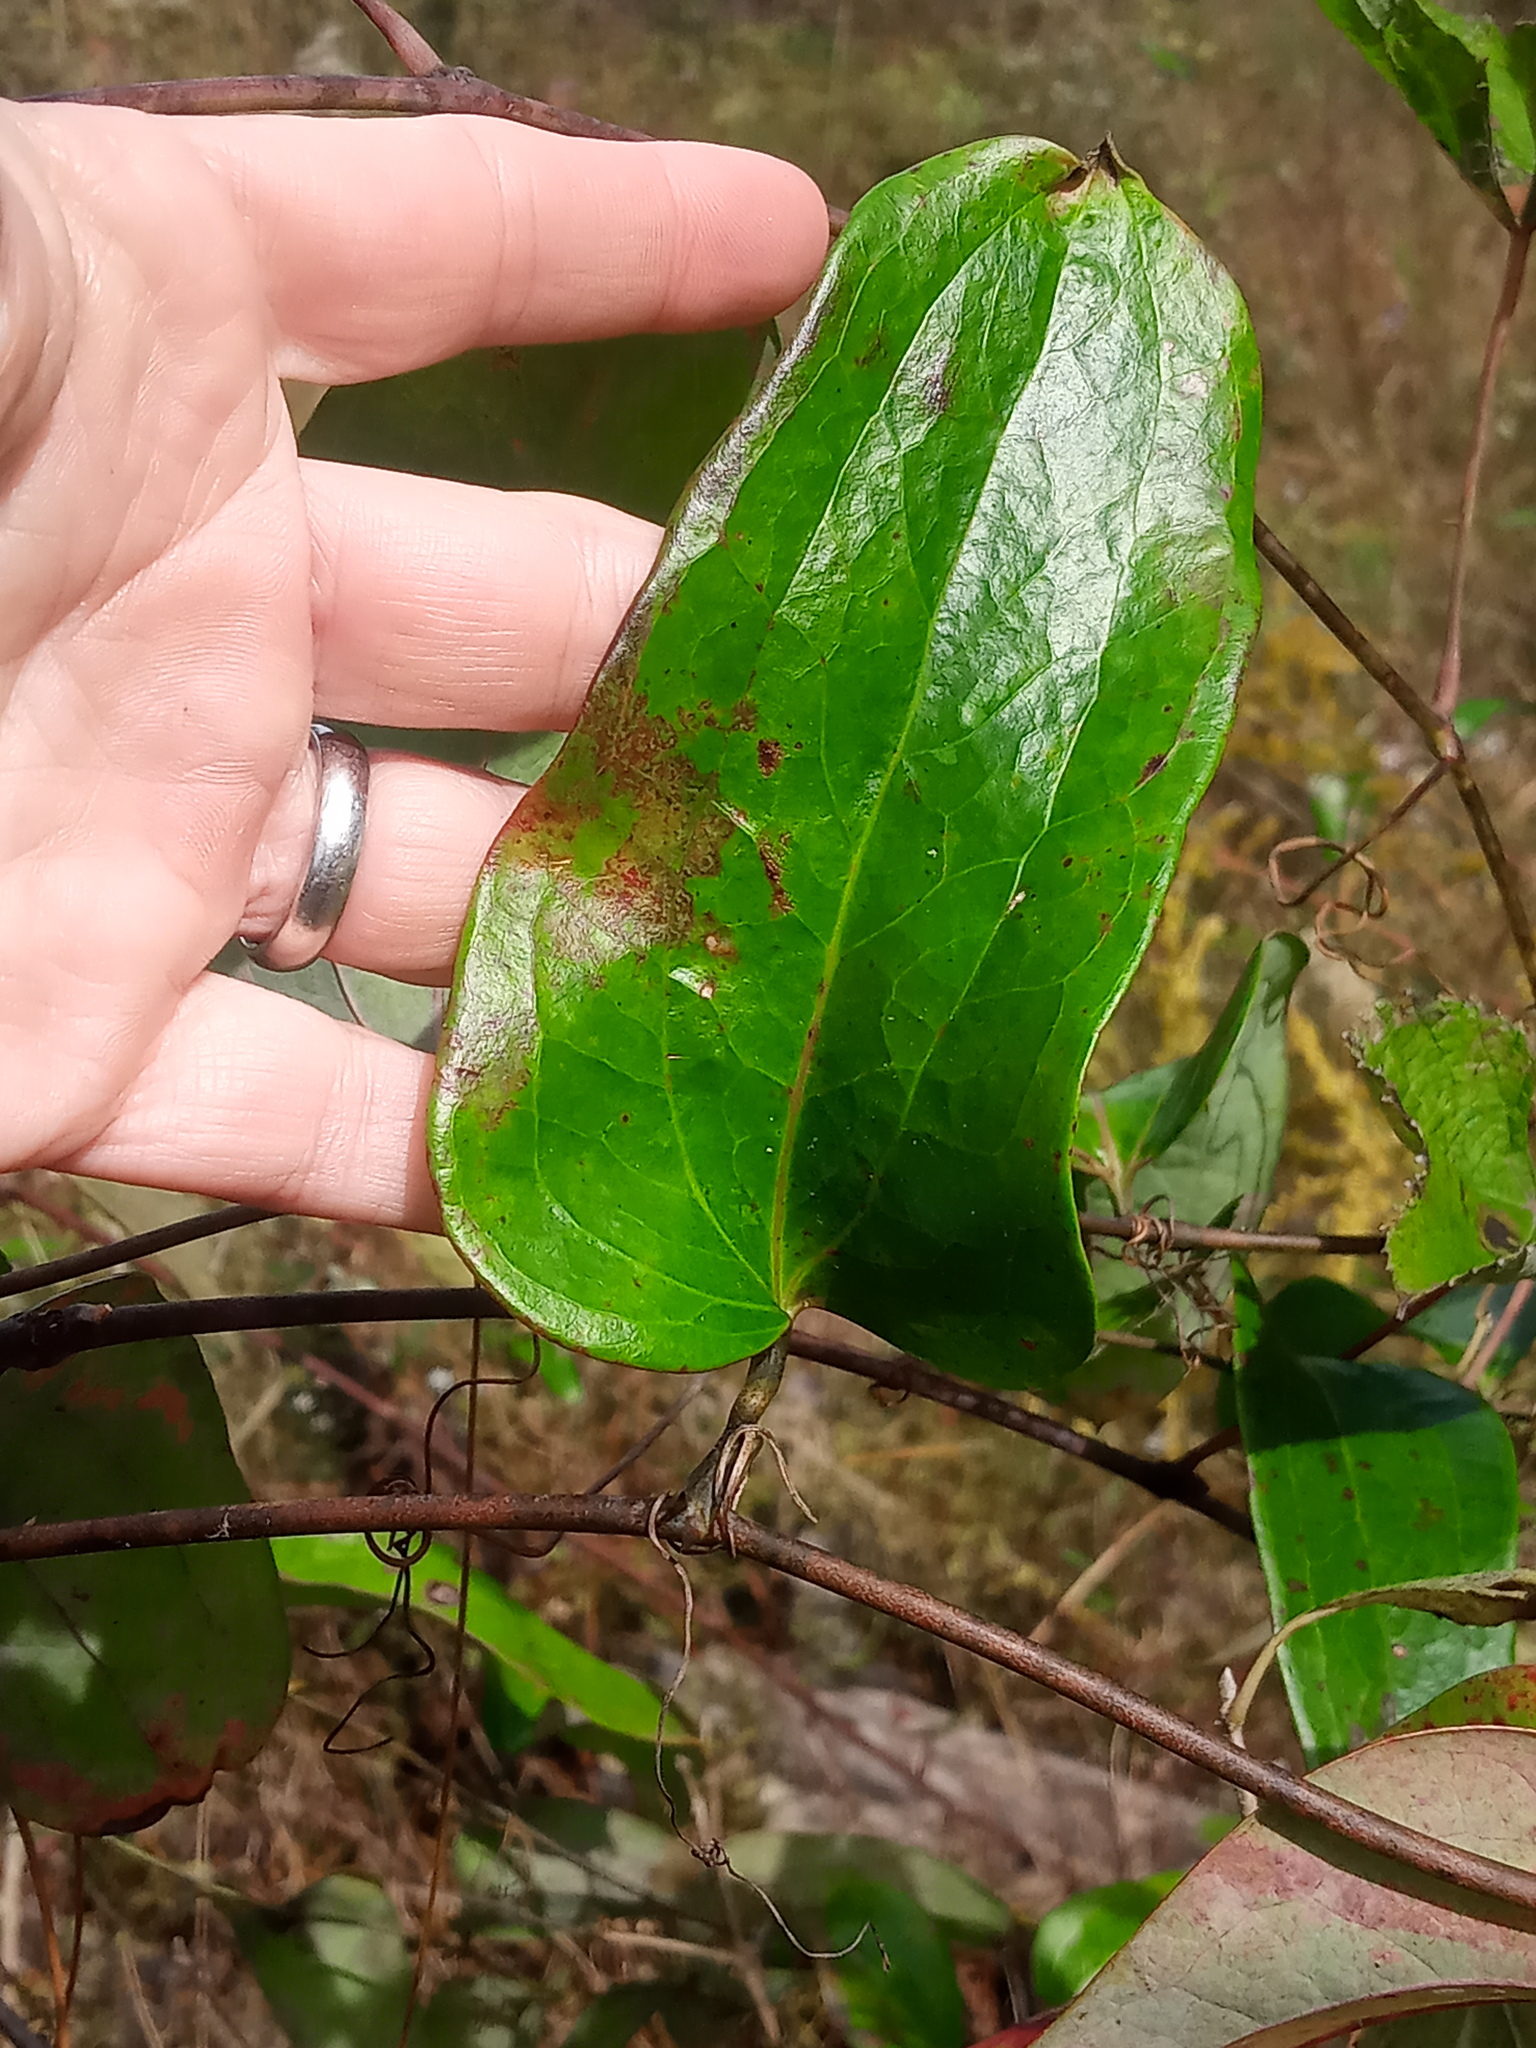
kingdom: Plantae
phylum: Tracheophyta
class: Liliopsida
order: Liliales
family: Smilacaceae
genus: Smilax
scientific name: Smilax glauca
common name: Cat greenbrier
